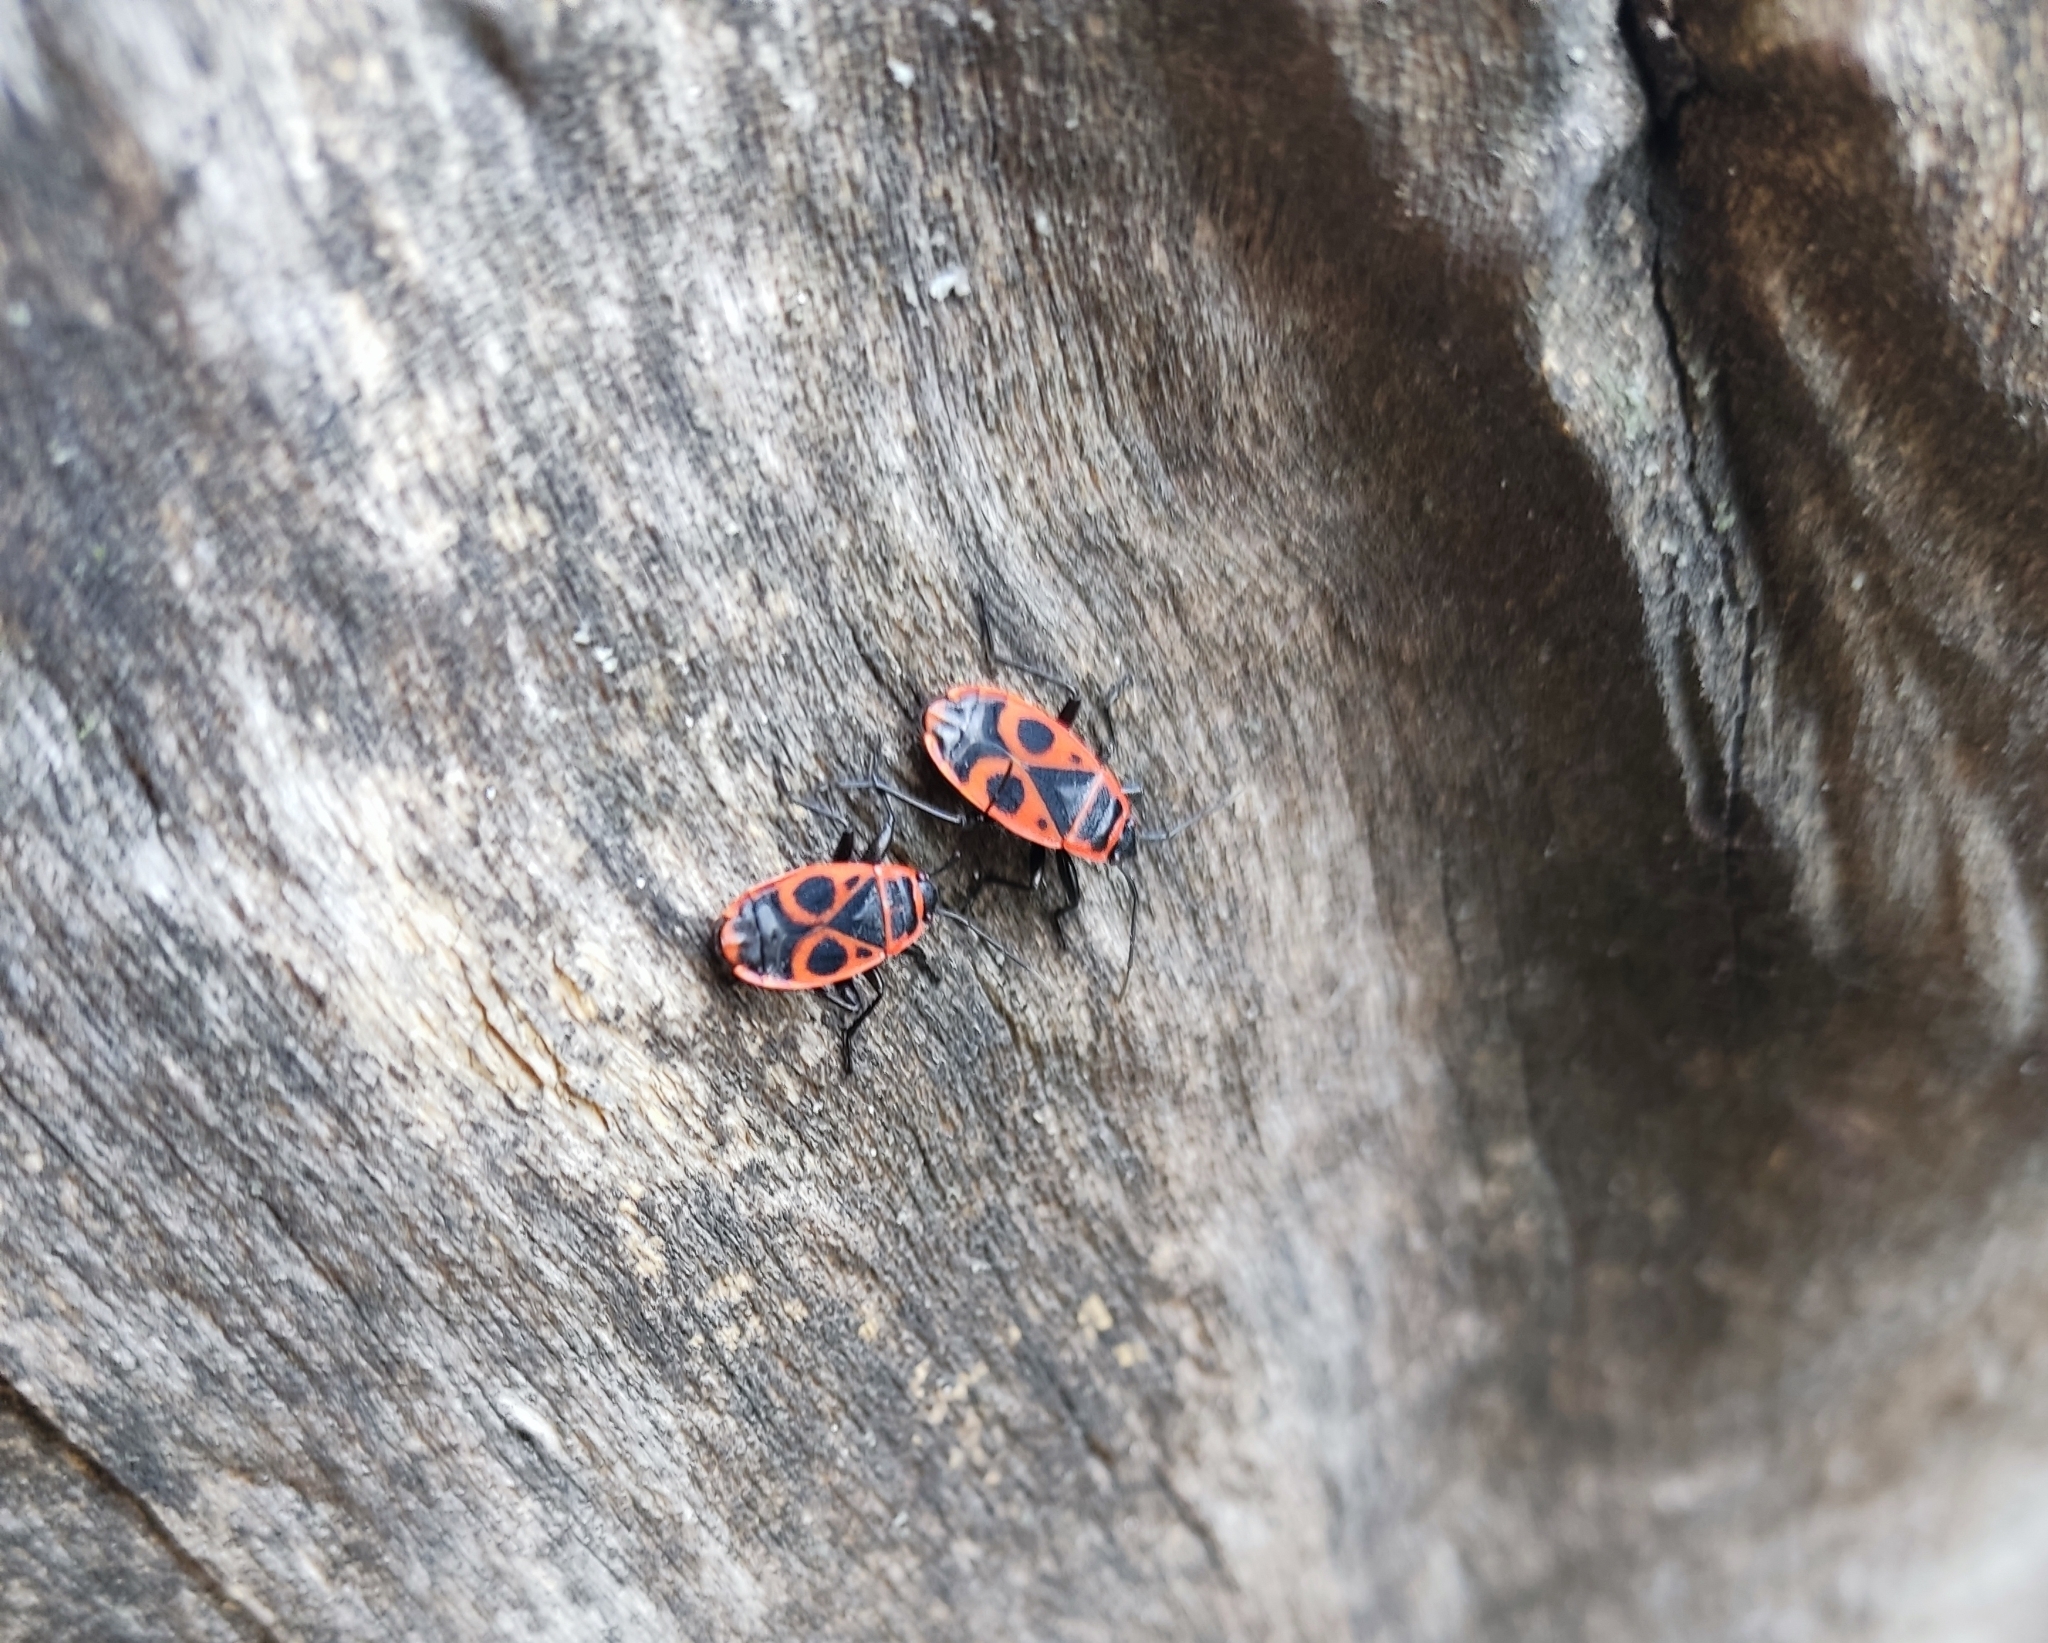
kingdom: Animalia
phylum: Arthropoda
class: Insecta
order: Hemiptera
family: Pyrrhocoridae
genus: Pyrrhocoris
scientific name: Pyrrhocoris apterus
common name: Firebug
